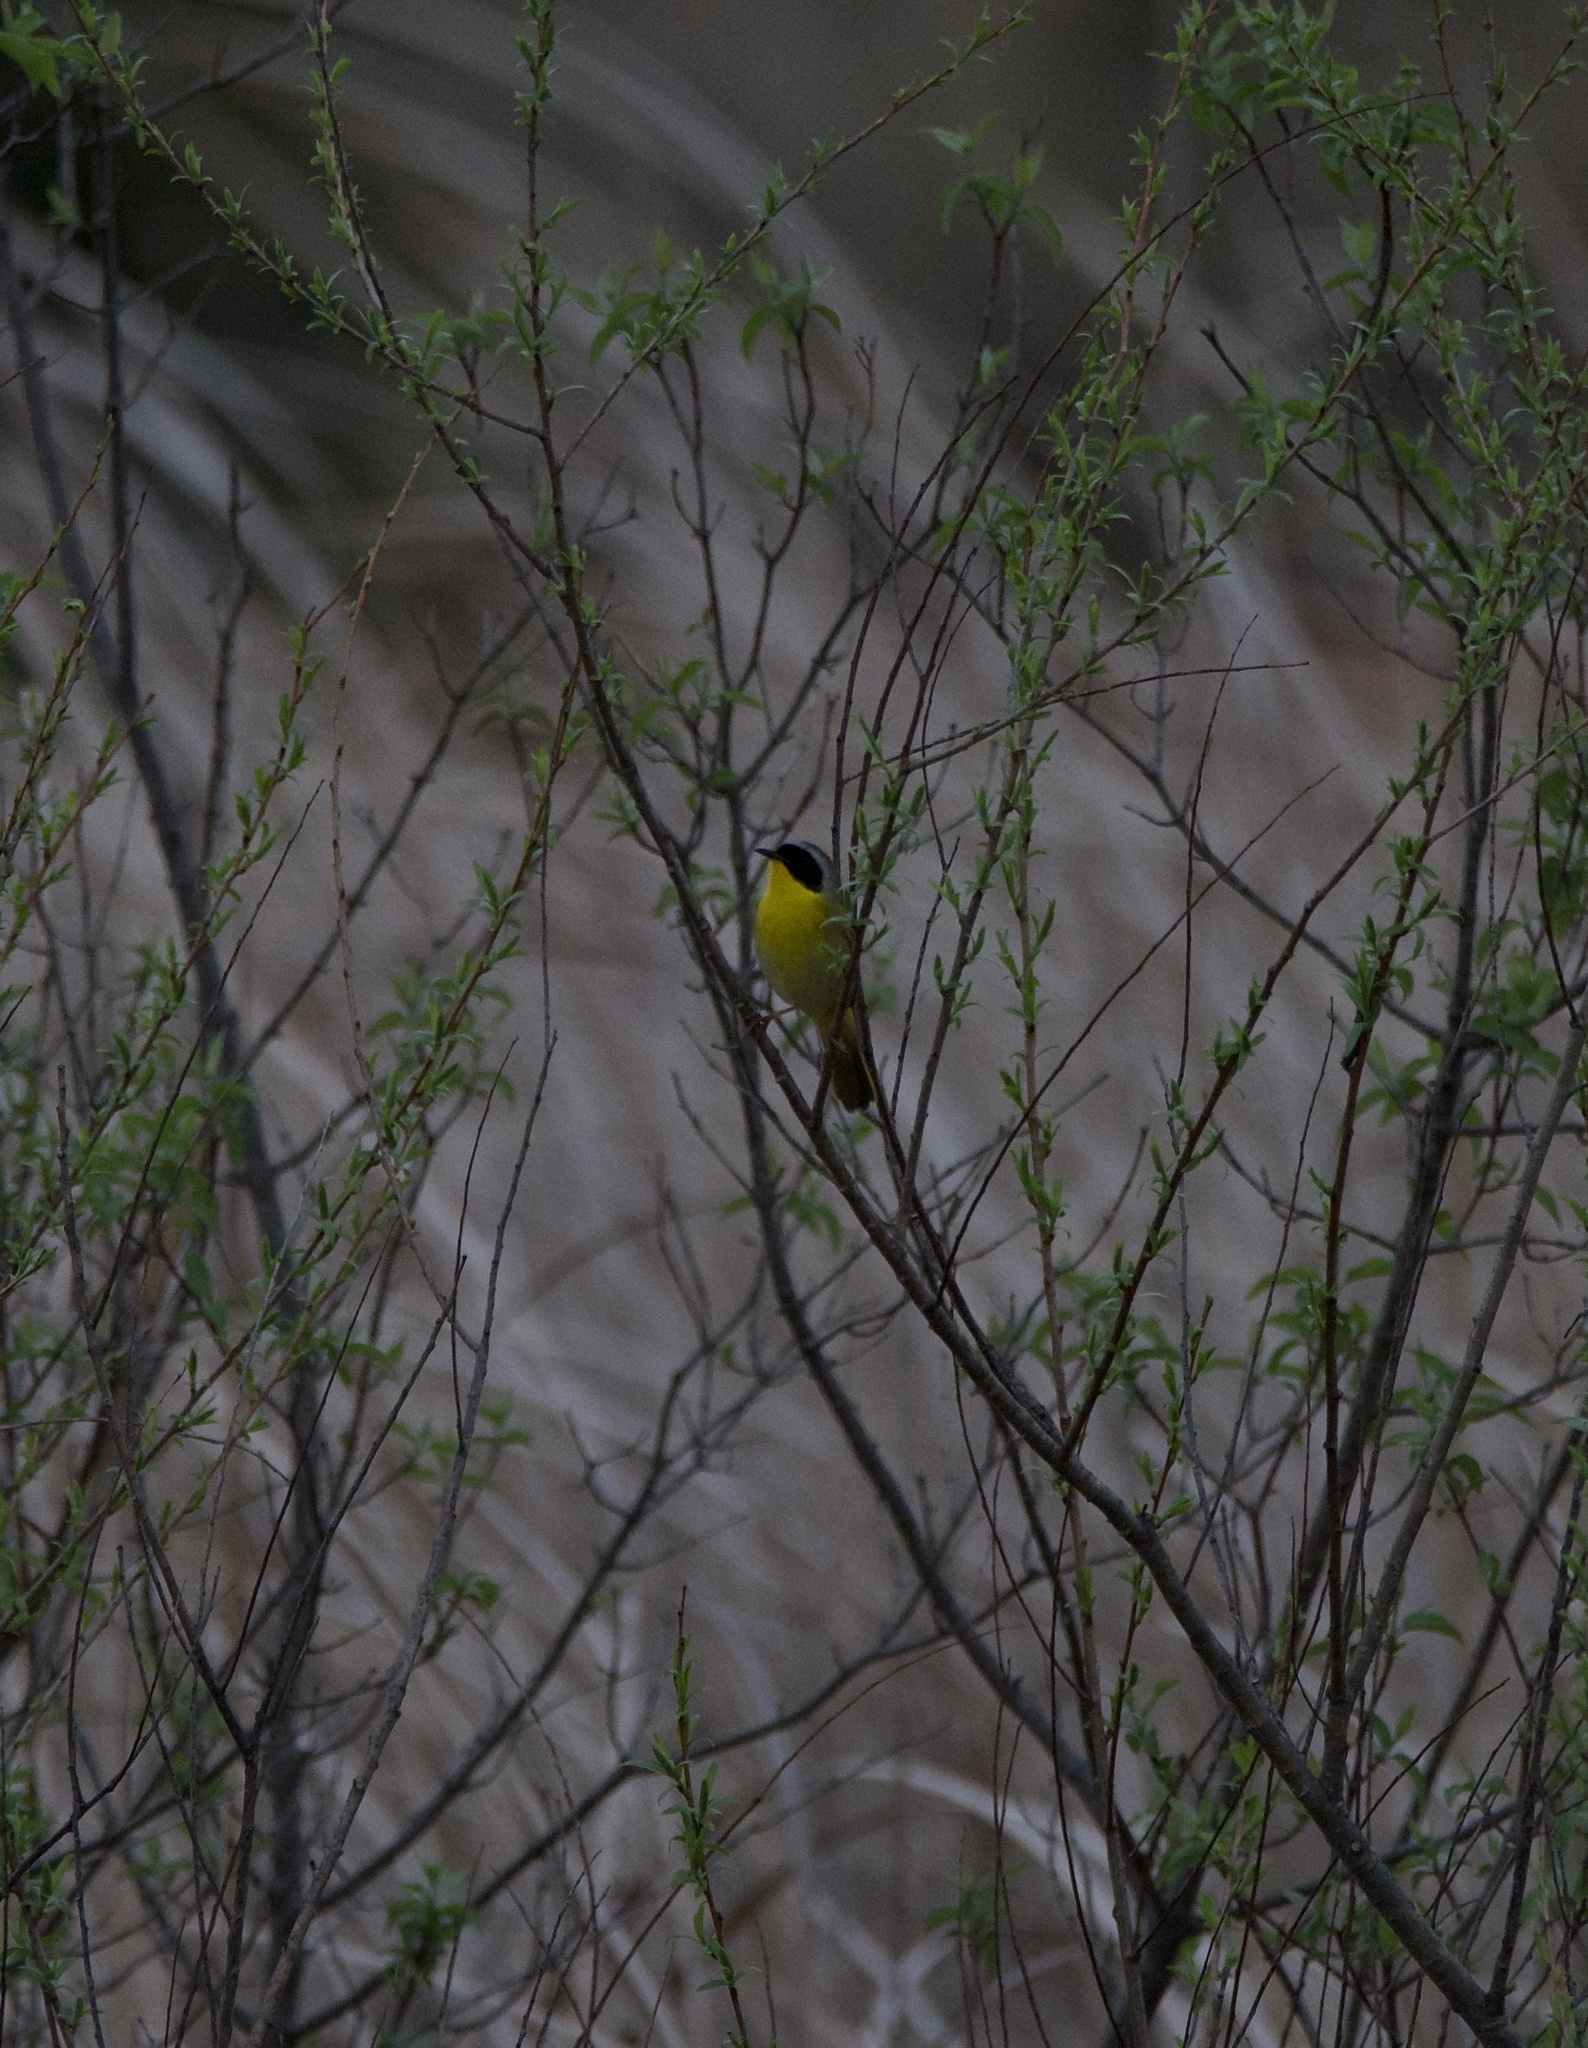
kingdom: Animalia
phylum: Chordata
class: Aves
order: Passeriformes
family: Parulidae
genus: Geothlypis
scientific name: Geothlypis trichas
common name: Common yellowthroat
